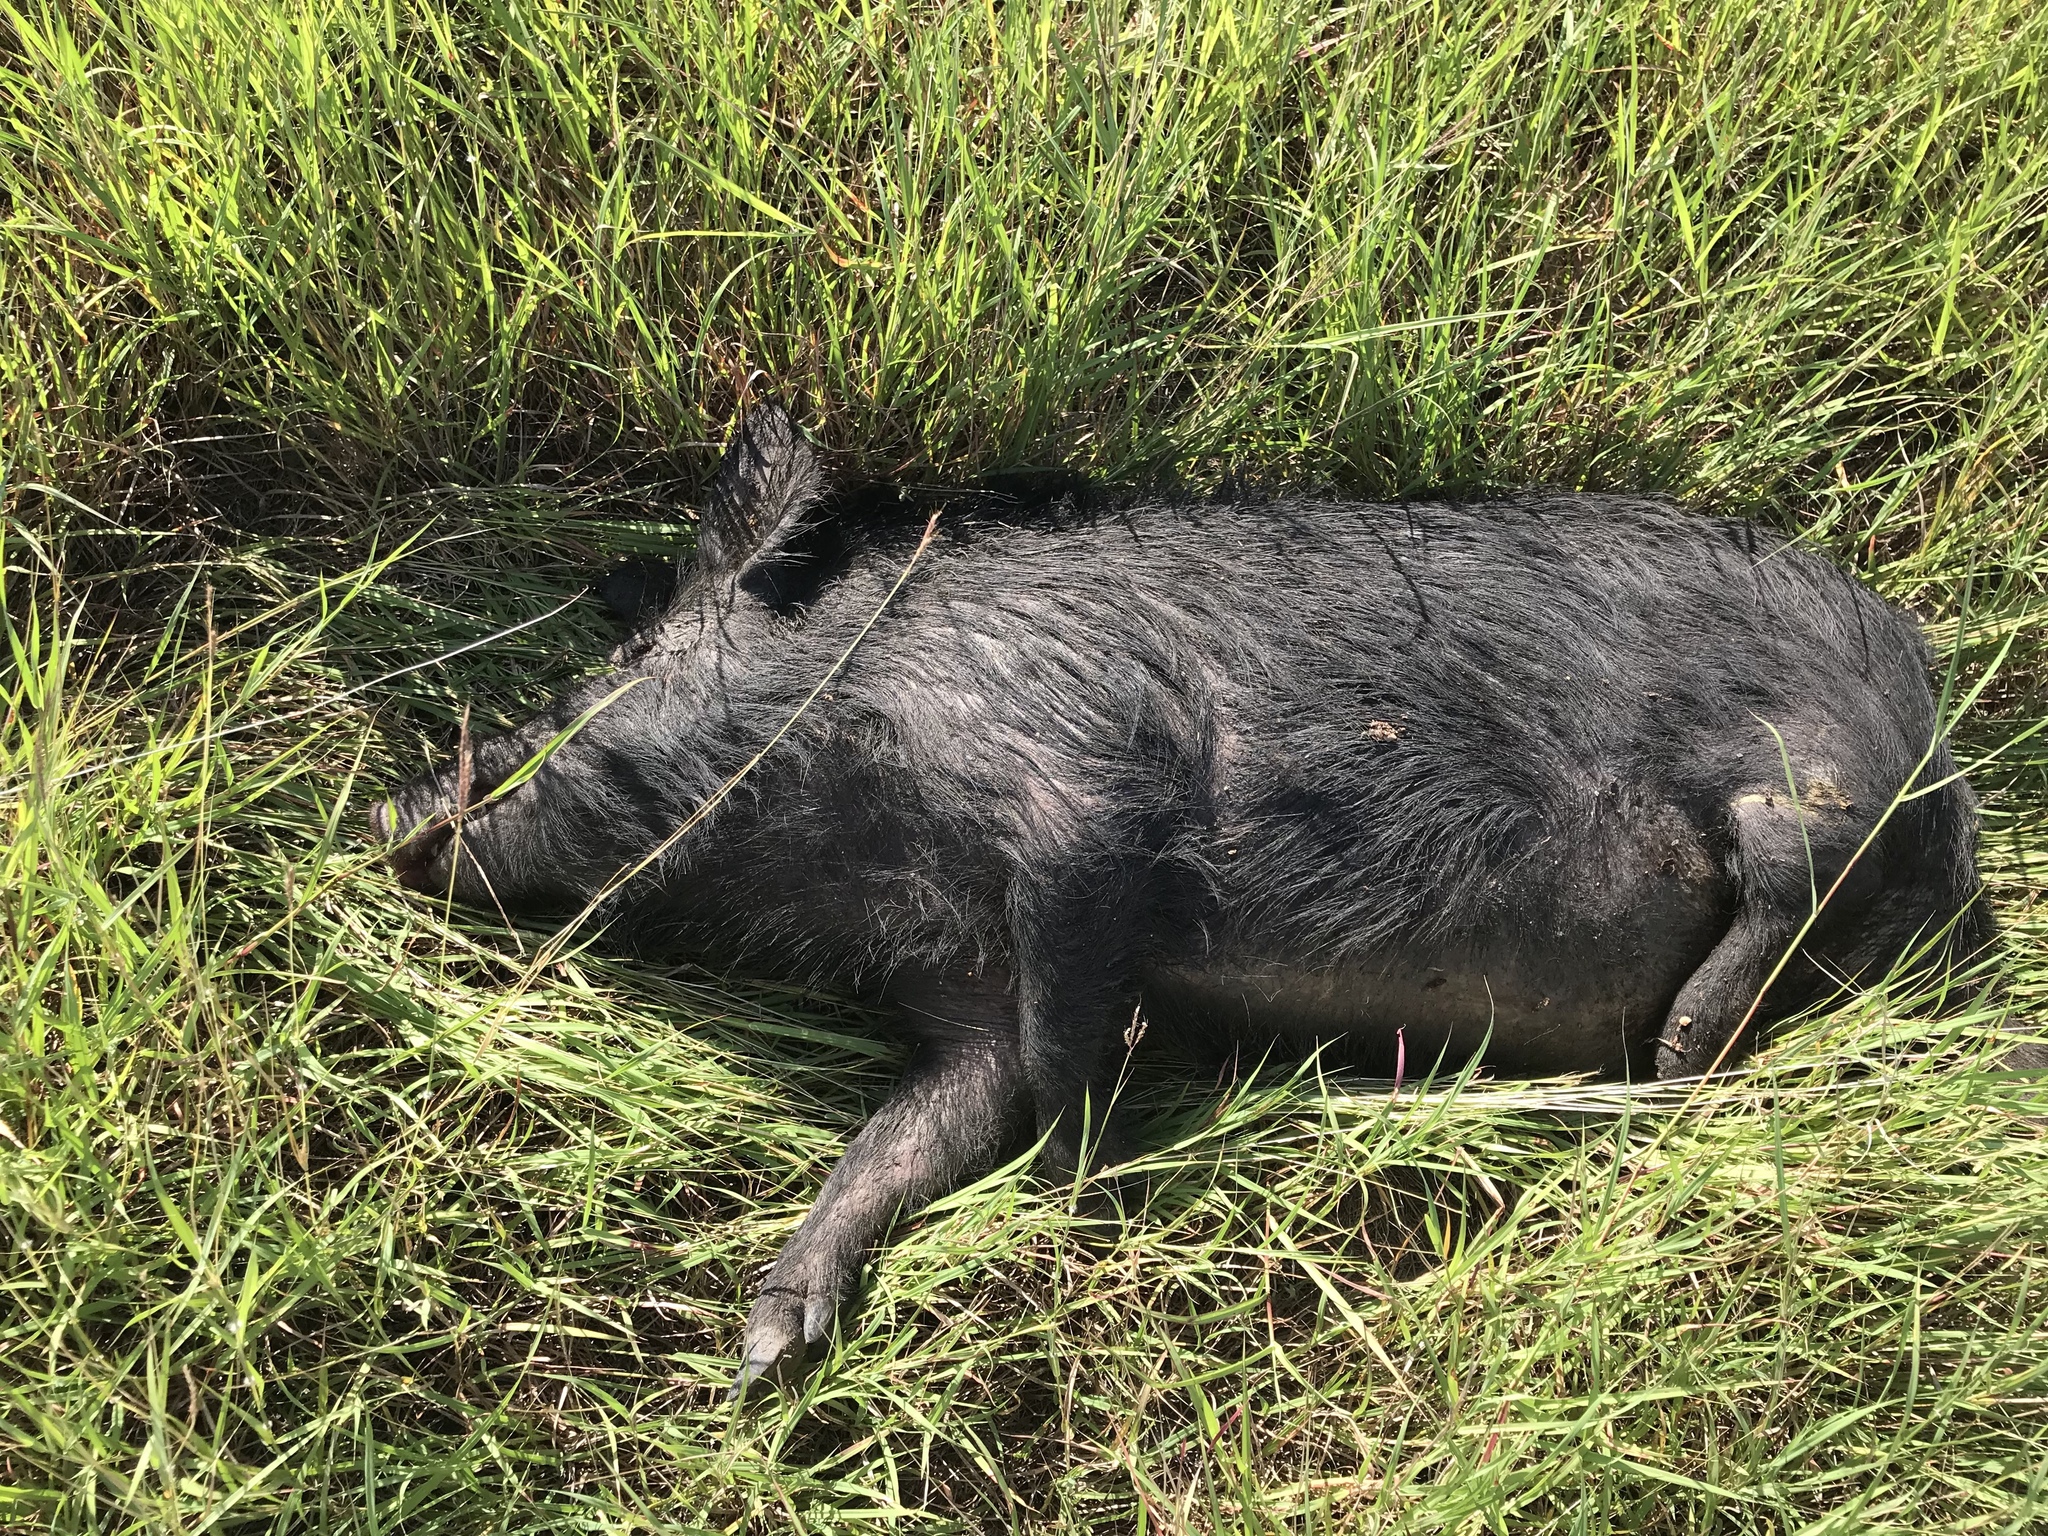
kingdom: Animalia
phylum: Chordata
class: Mammalia
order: Artiodactyla
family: Suidae
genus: Sus
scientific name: Sus scrofa
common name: Wild boar
